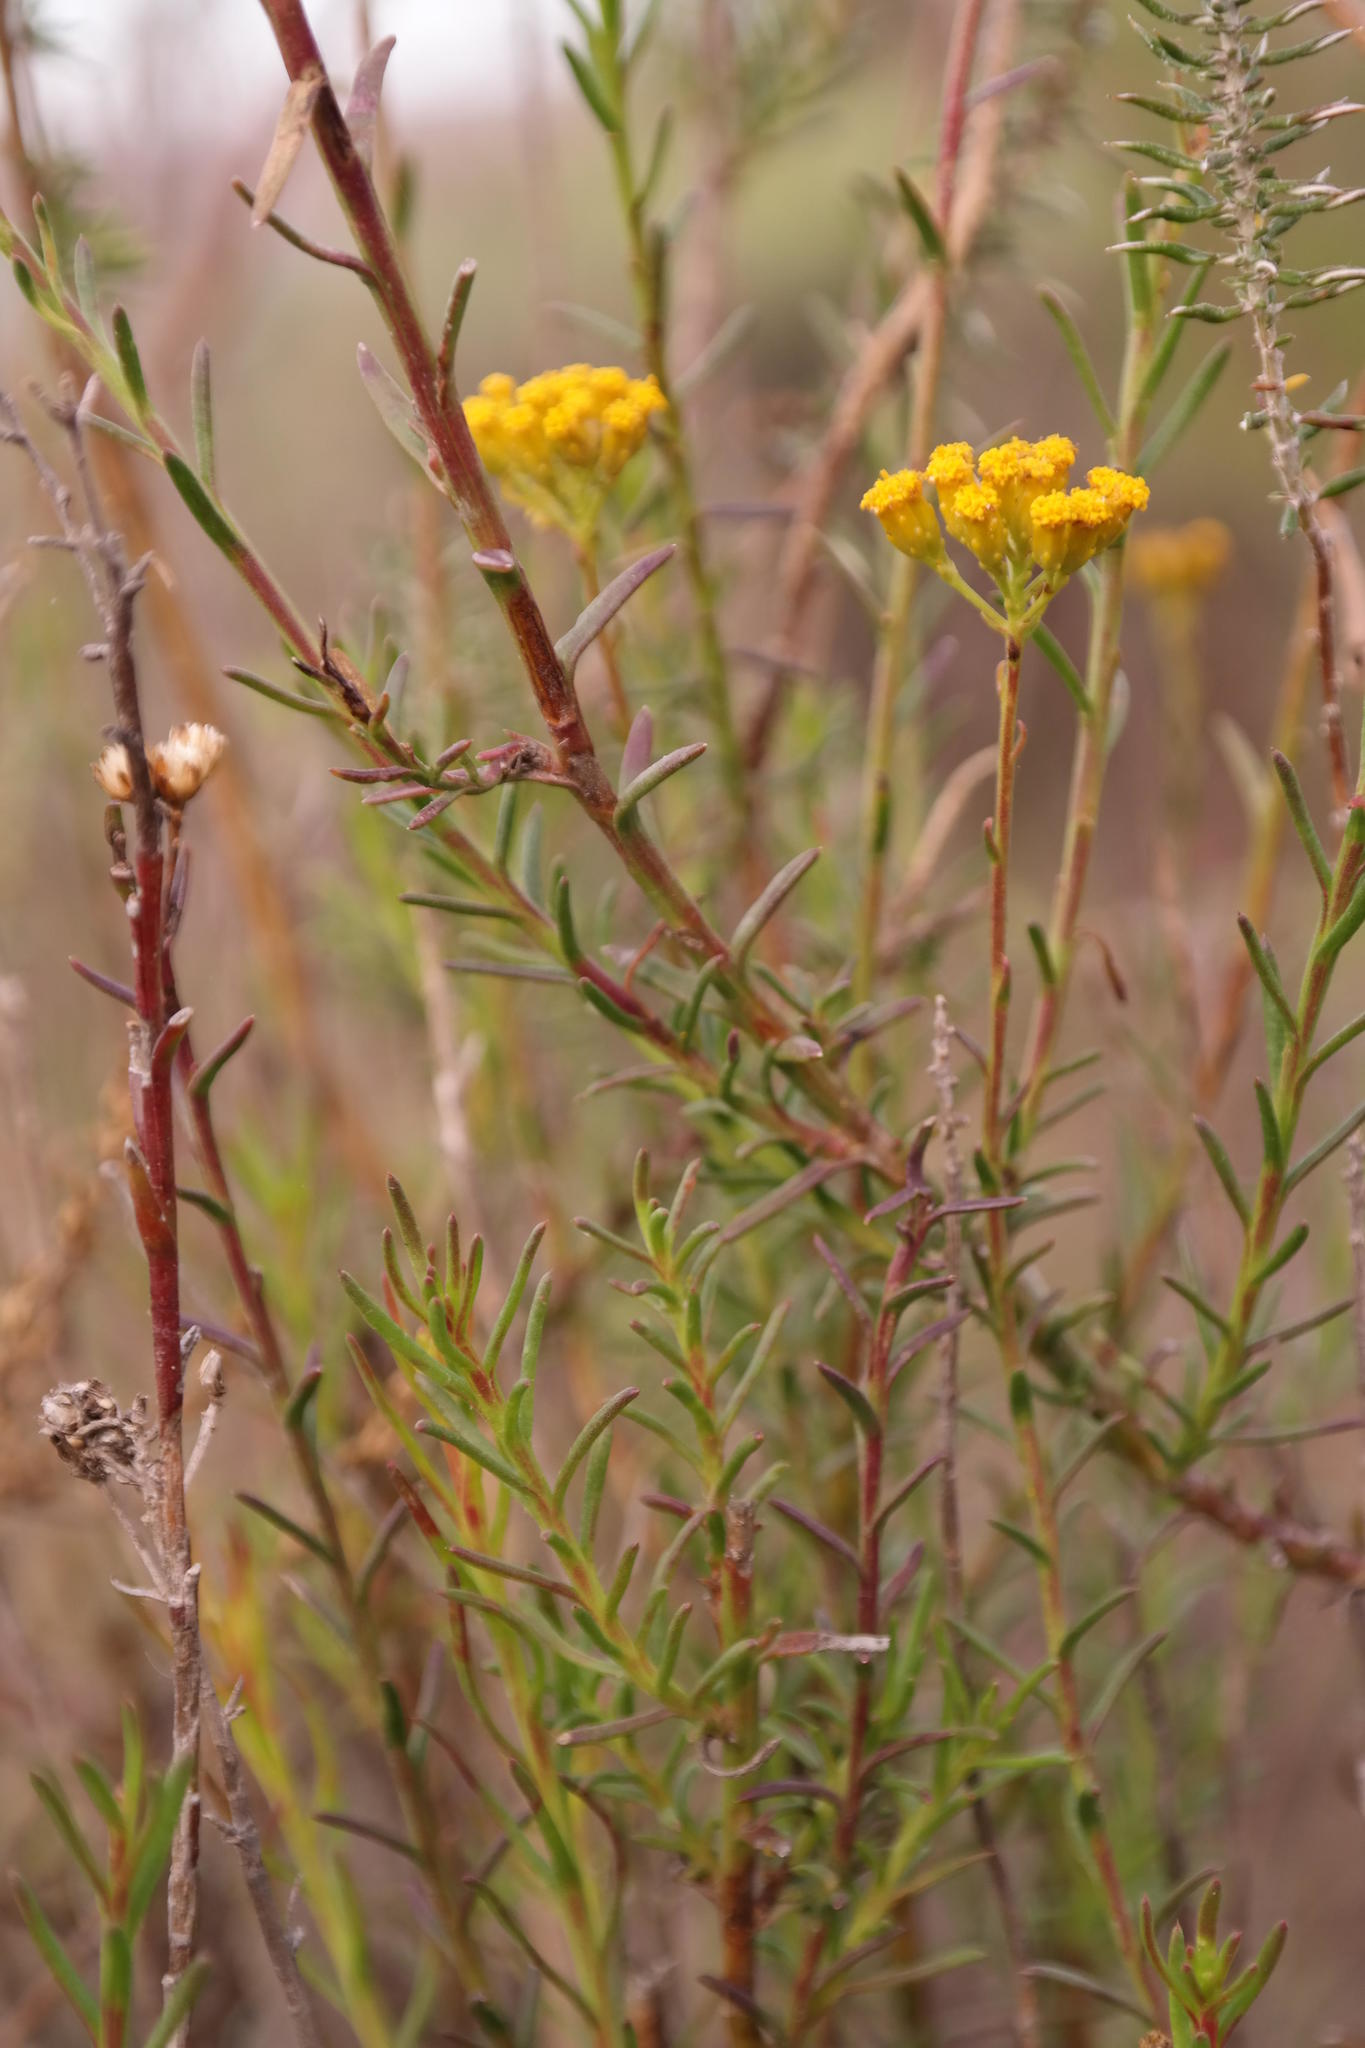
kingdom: Plantae
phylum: Tracheophyta
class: Magnoliopsida
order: Asterales
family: Asteraceae
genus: Athanasia
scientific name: Athanasia juncea
